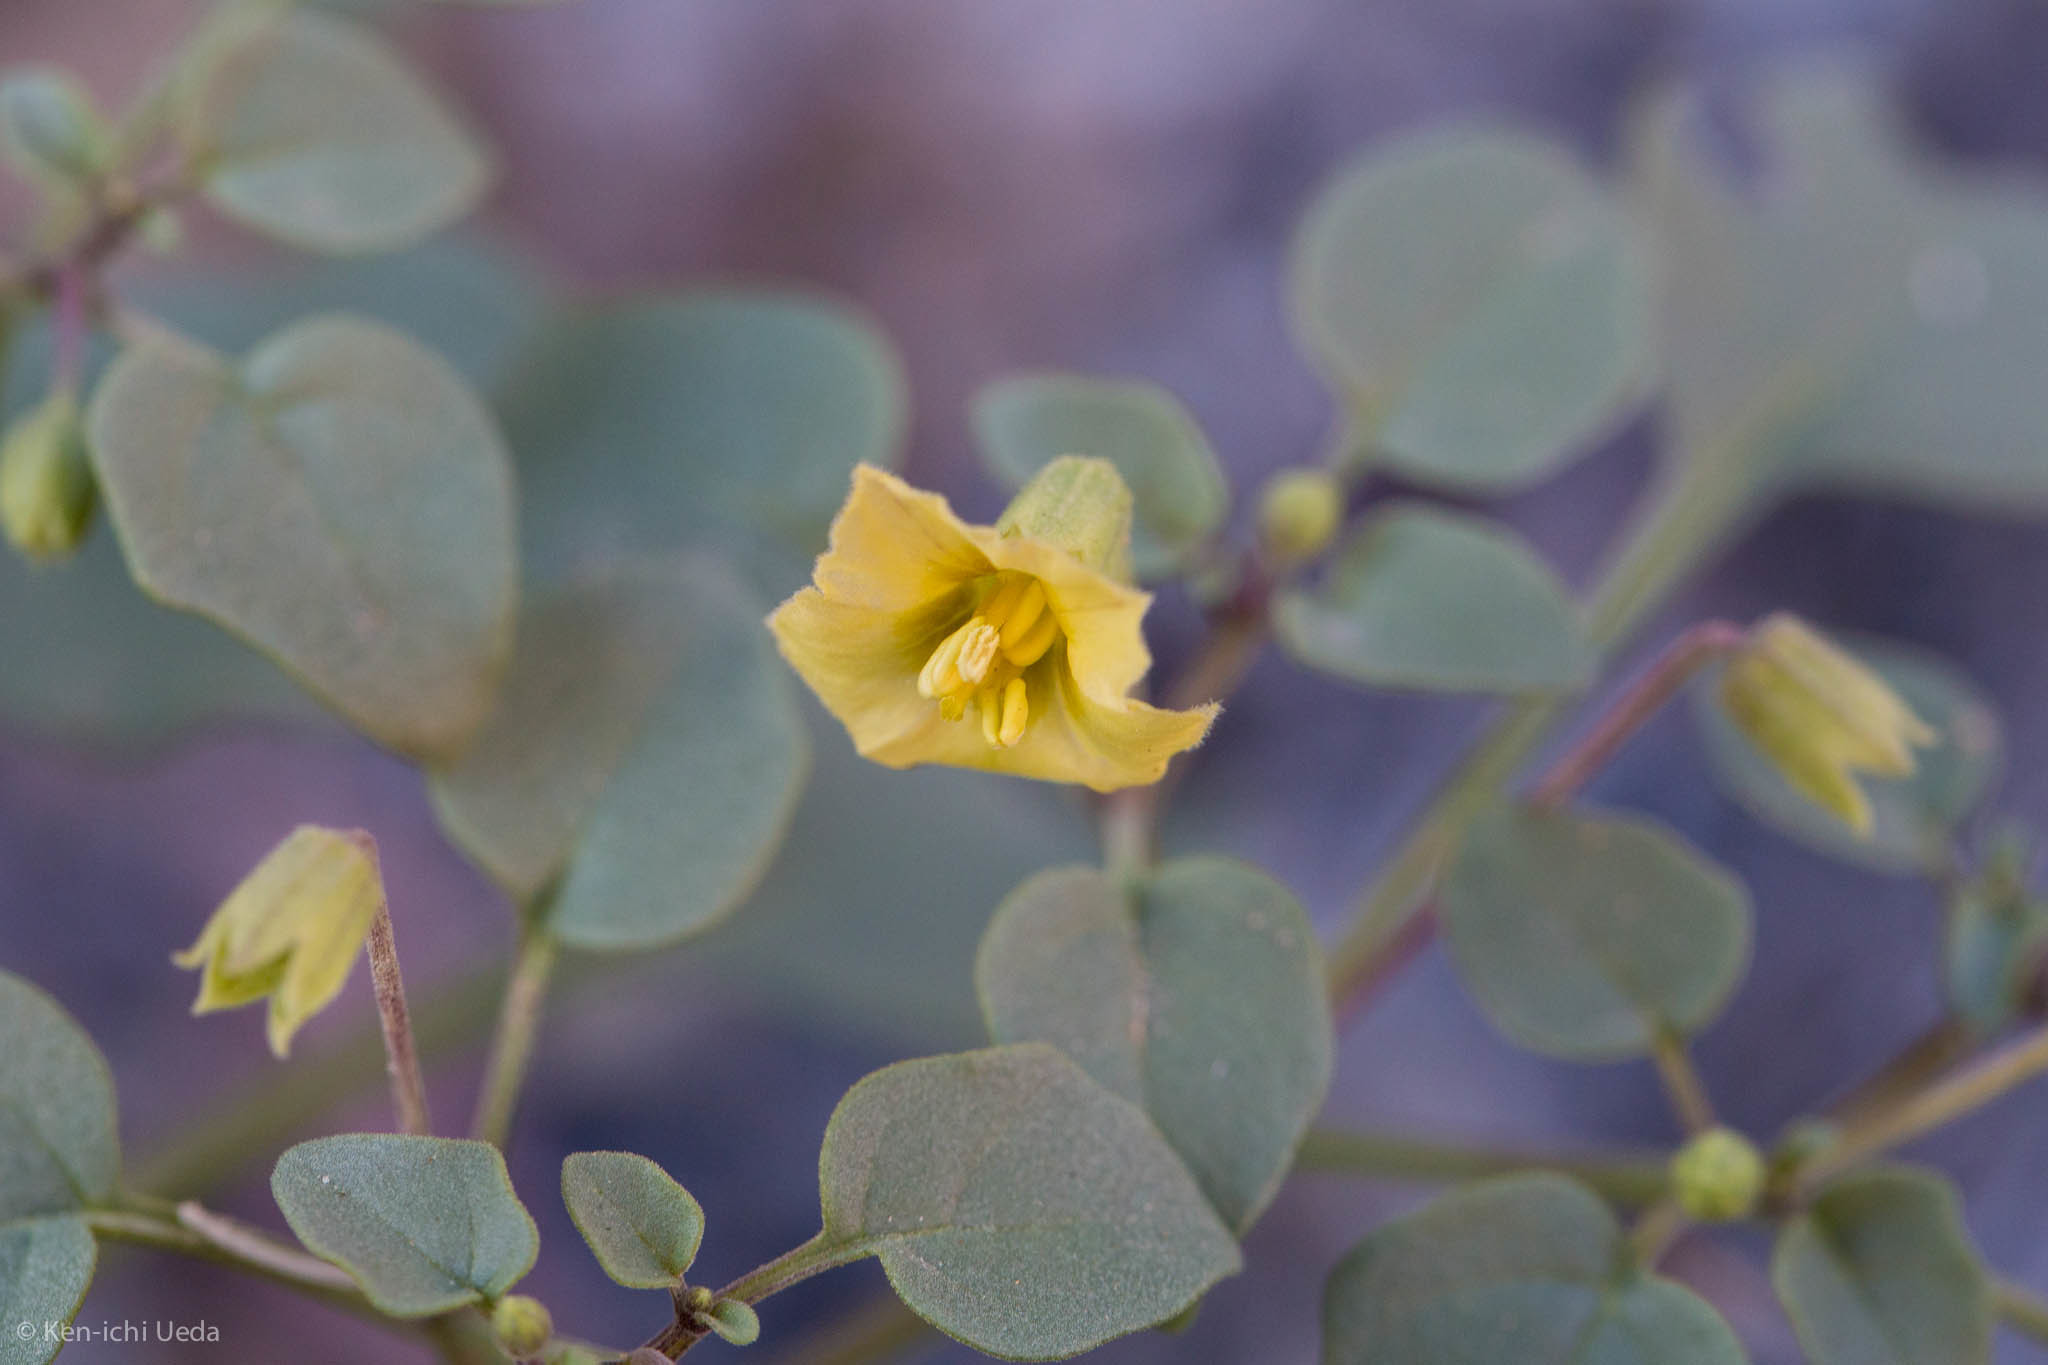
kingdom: Plantae
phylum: Tracheophyta
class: Magnoliopsida
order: Solanales
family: Solanaceae
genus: Physalis
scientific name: Physalis crassifolia
